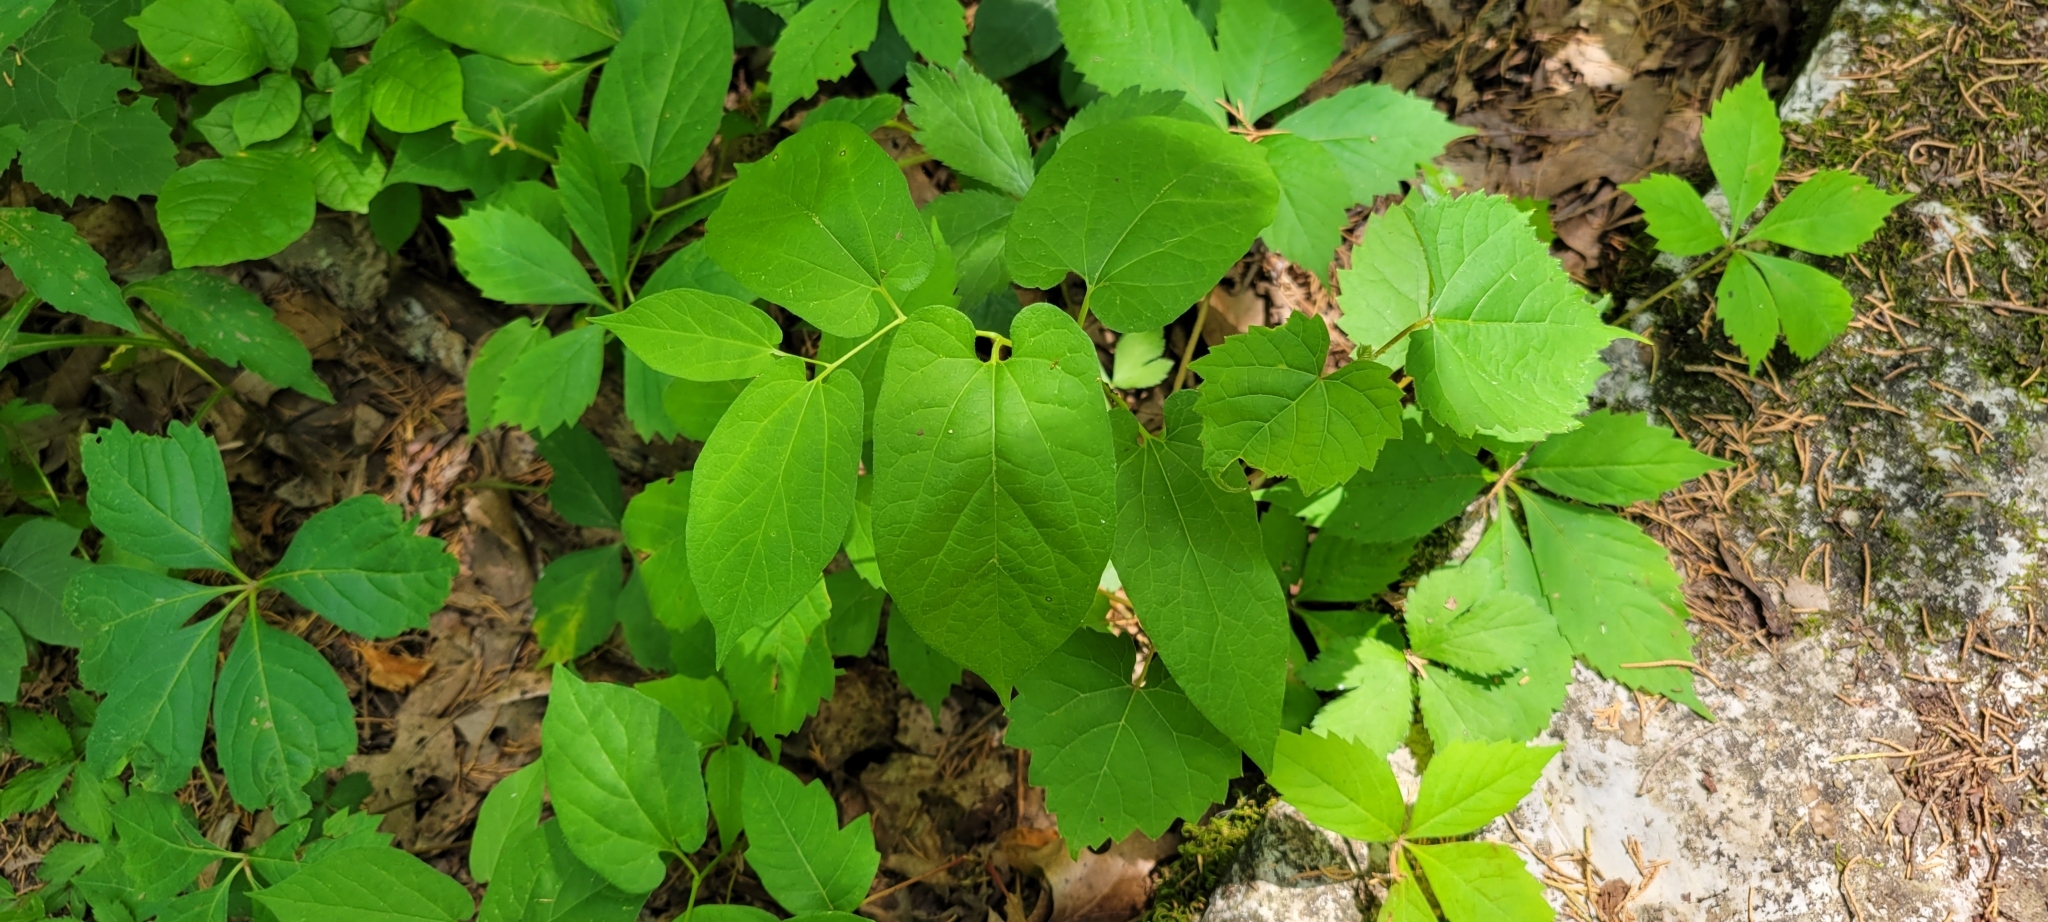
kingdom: Plantae
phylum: Tracheophyta
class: Magnoliopsida
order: Piperales
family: Aristolochiaceae
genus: Endodeca
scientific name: Endodeca serpentaria
